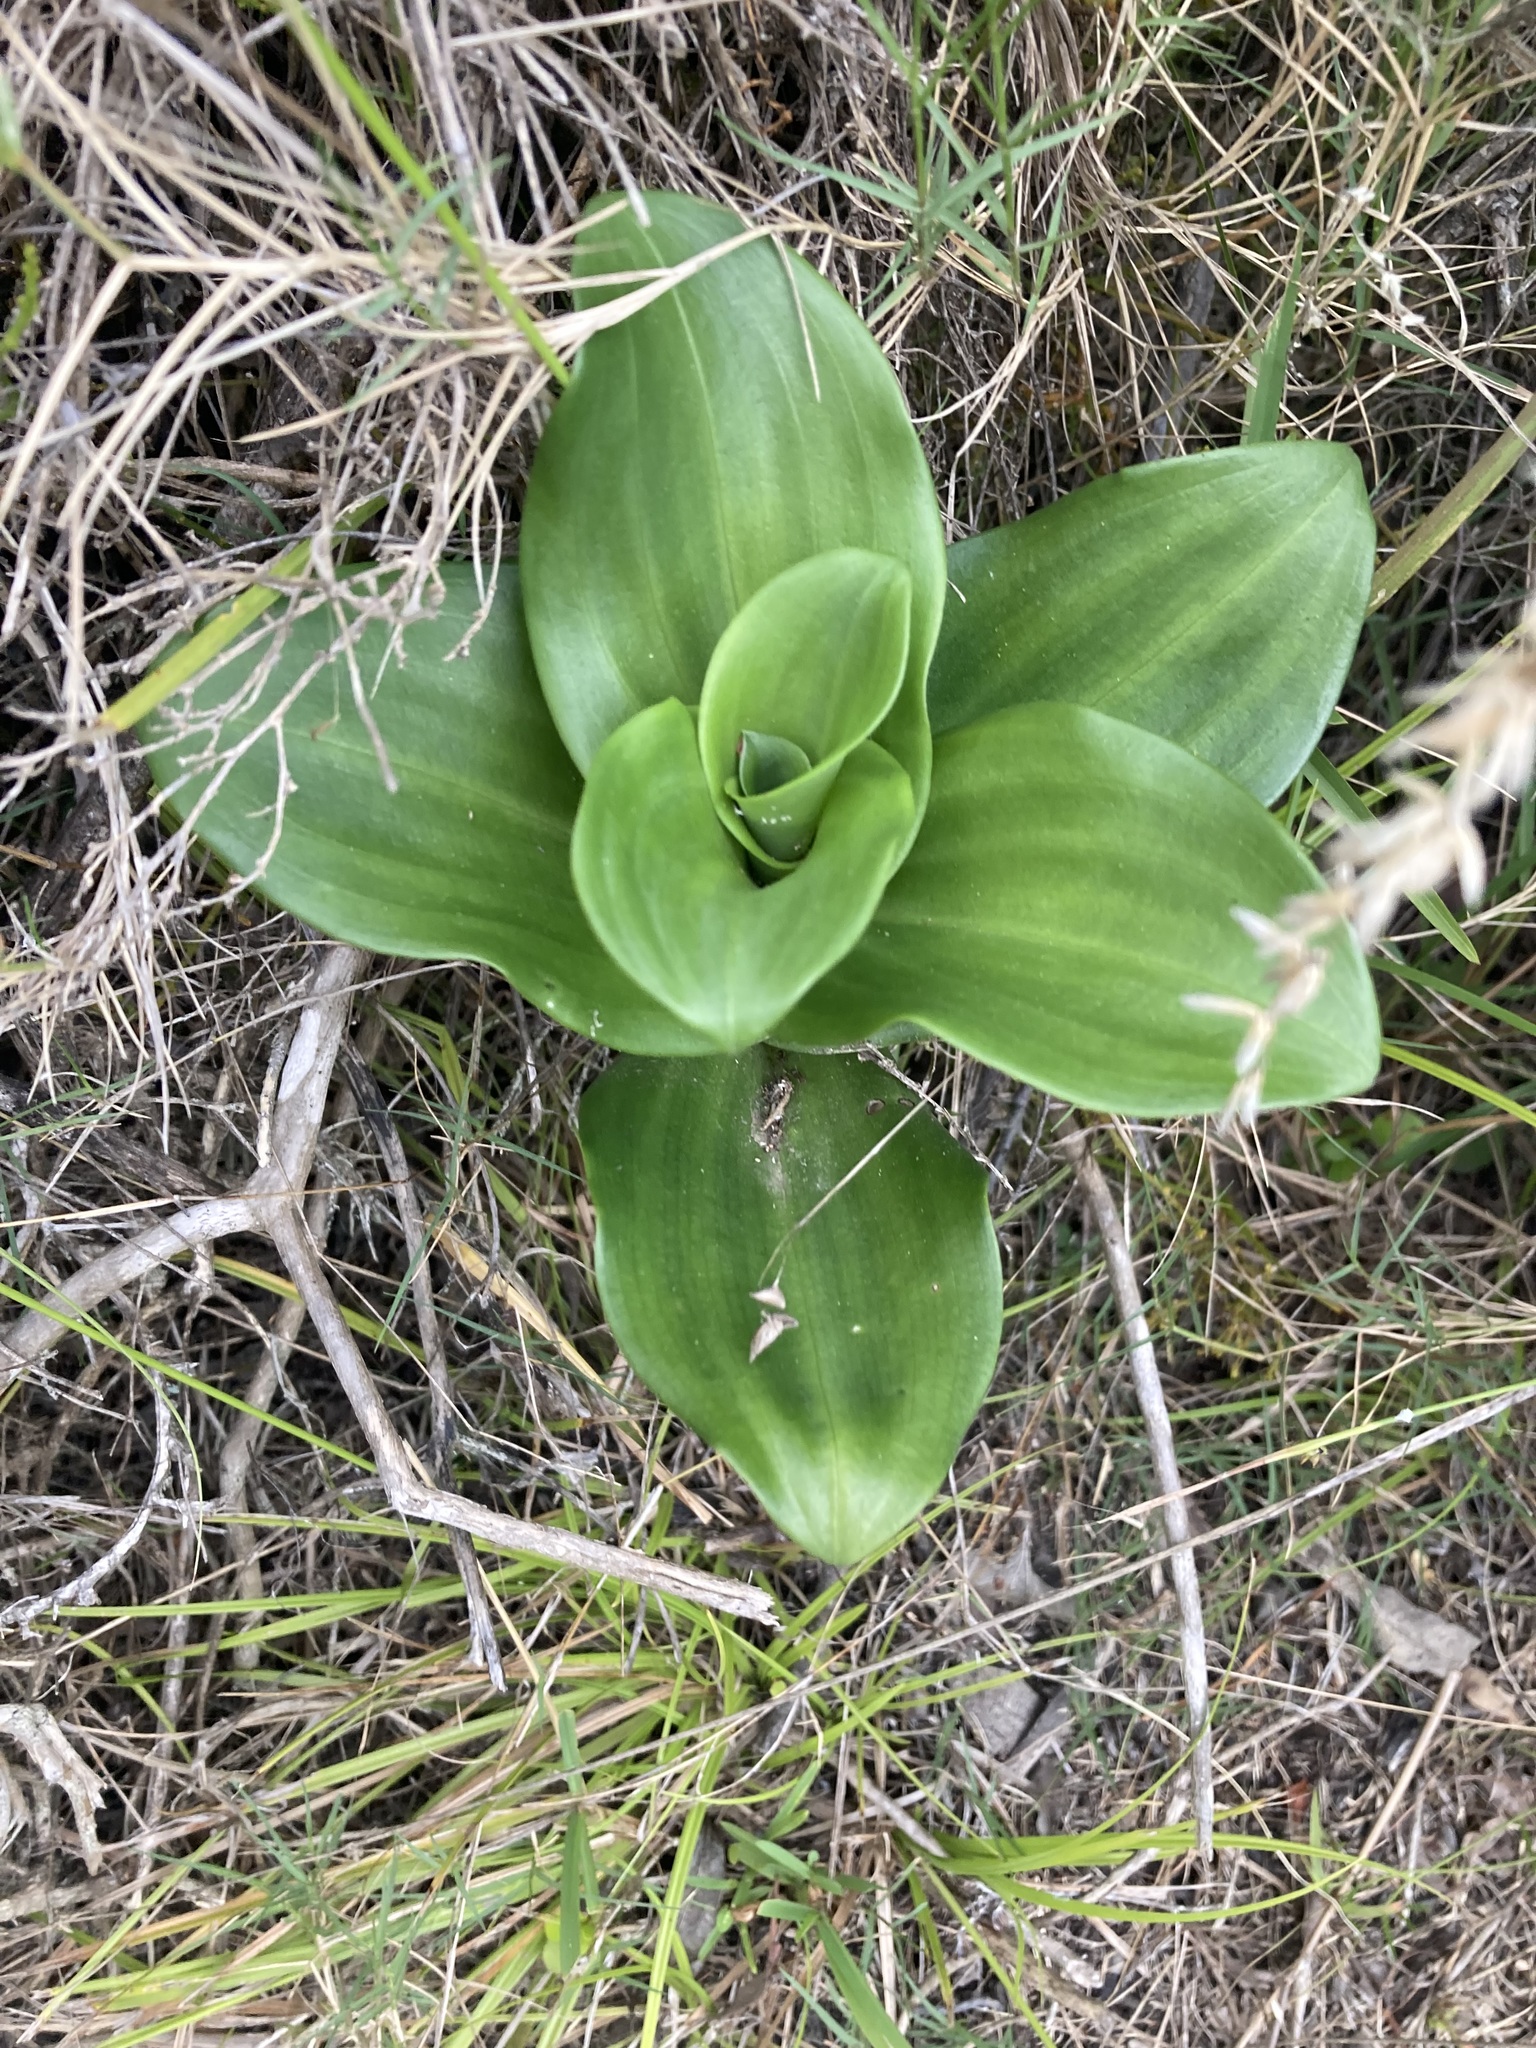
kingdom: Plantae
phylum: Tracheophyta
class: Liliopsida
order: Asparagales
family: Orchidaceae
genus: Bonatea
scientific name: Bonatea speciosa
